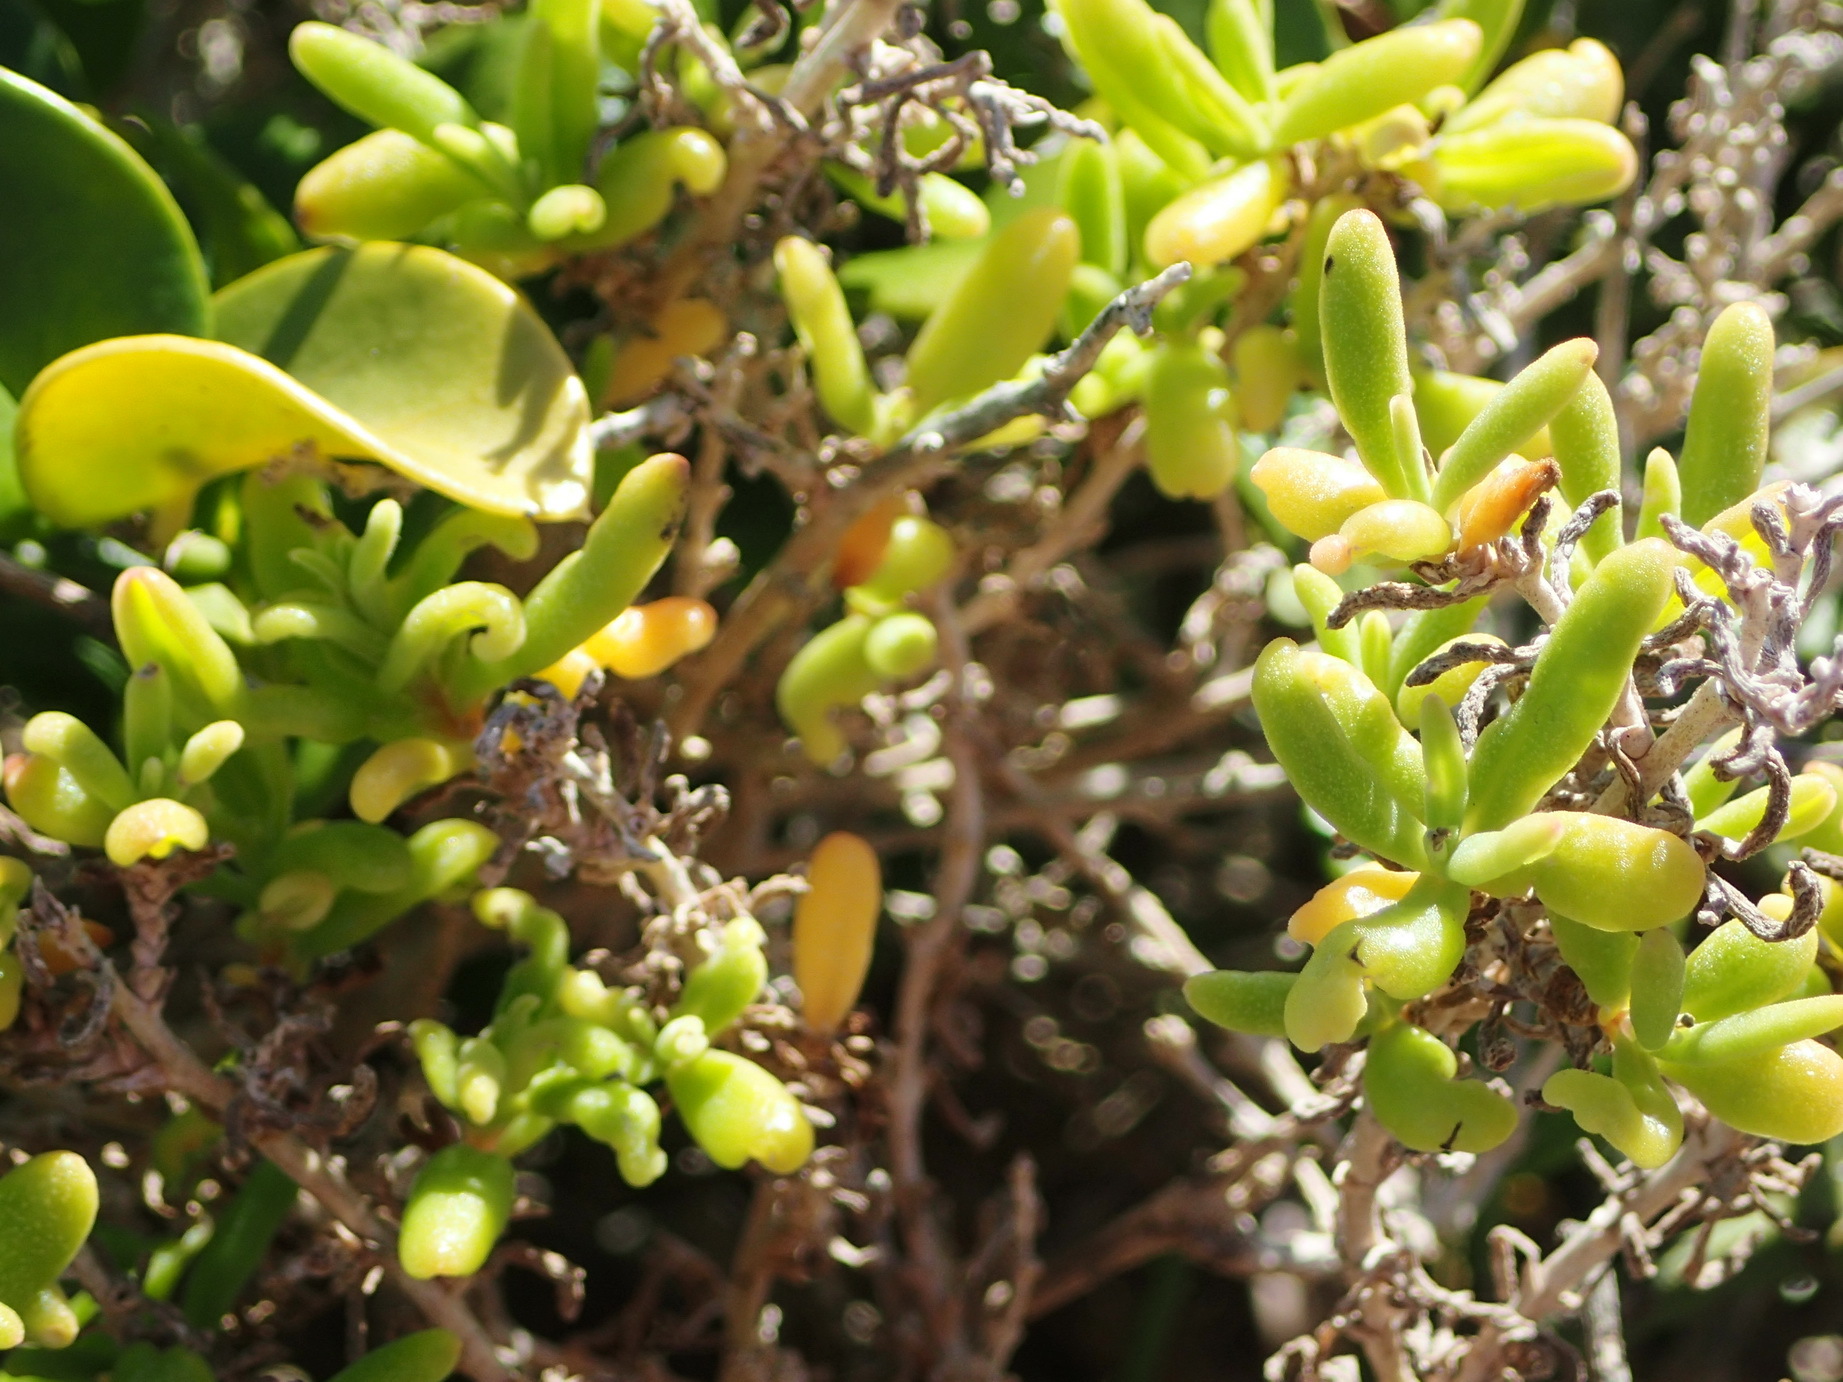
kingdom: Plantae
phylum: Tracheophyta
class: Magnoliopsida
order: Caryophyllales
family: Aizoaceae
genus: Tetragonia
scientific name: Tetragonia fruticosa
